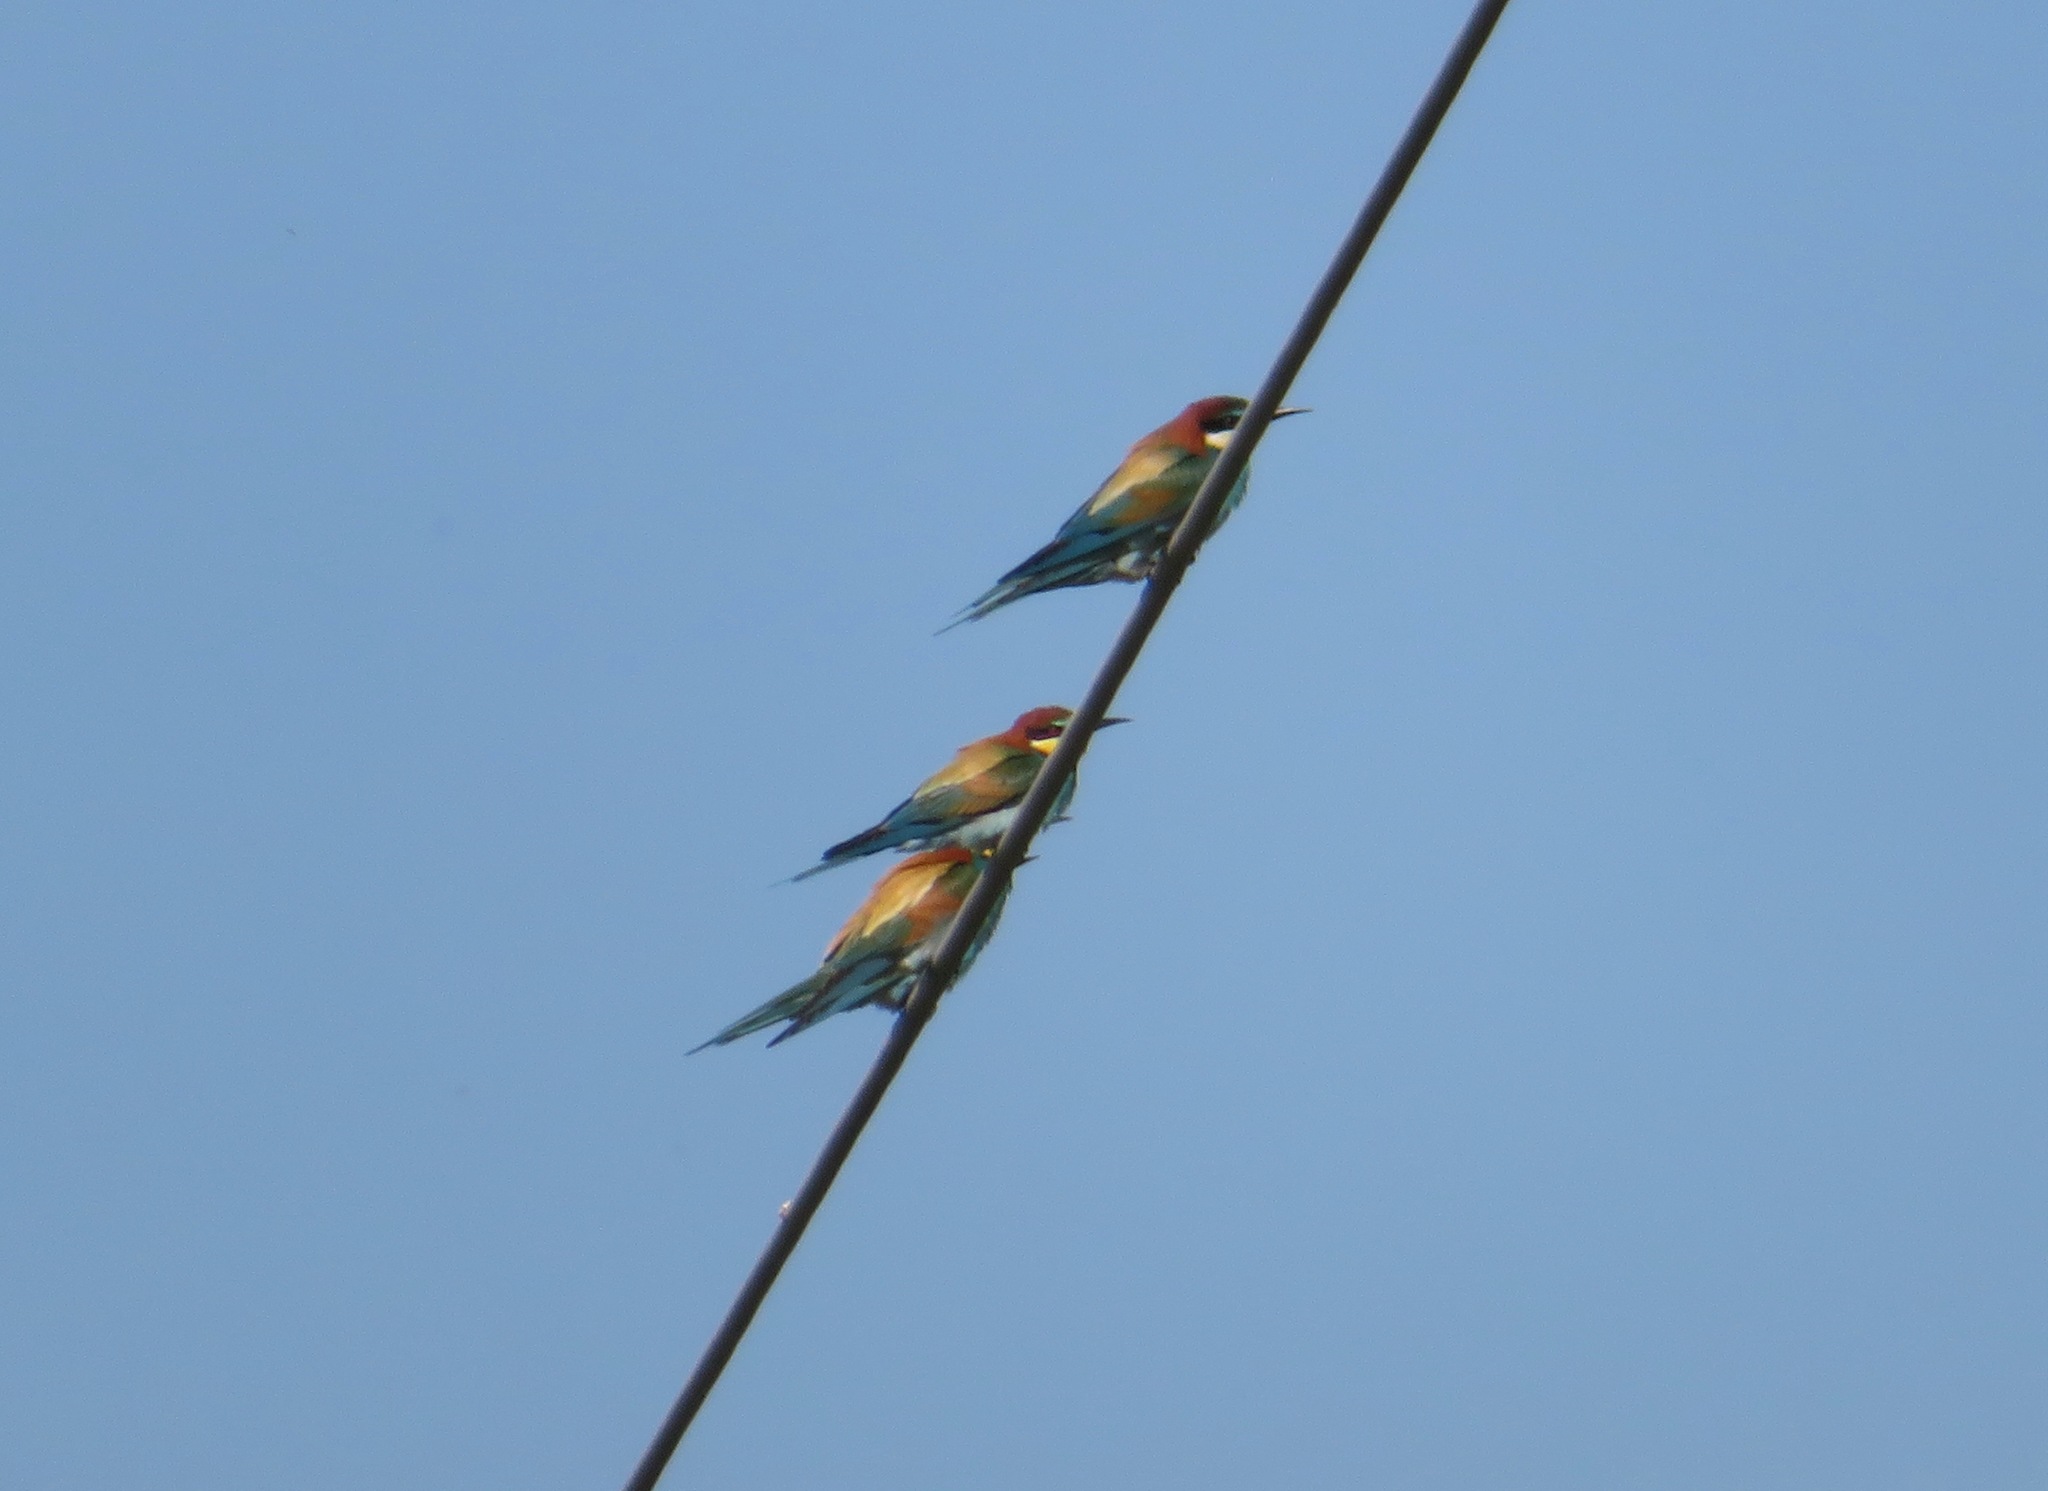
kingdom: Animalia
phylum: Chordata
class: Aves
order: Coraciiformes
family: Meropidae
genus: Merops
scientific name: Merops apiaster
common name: European bee-eater
